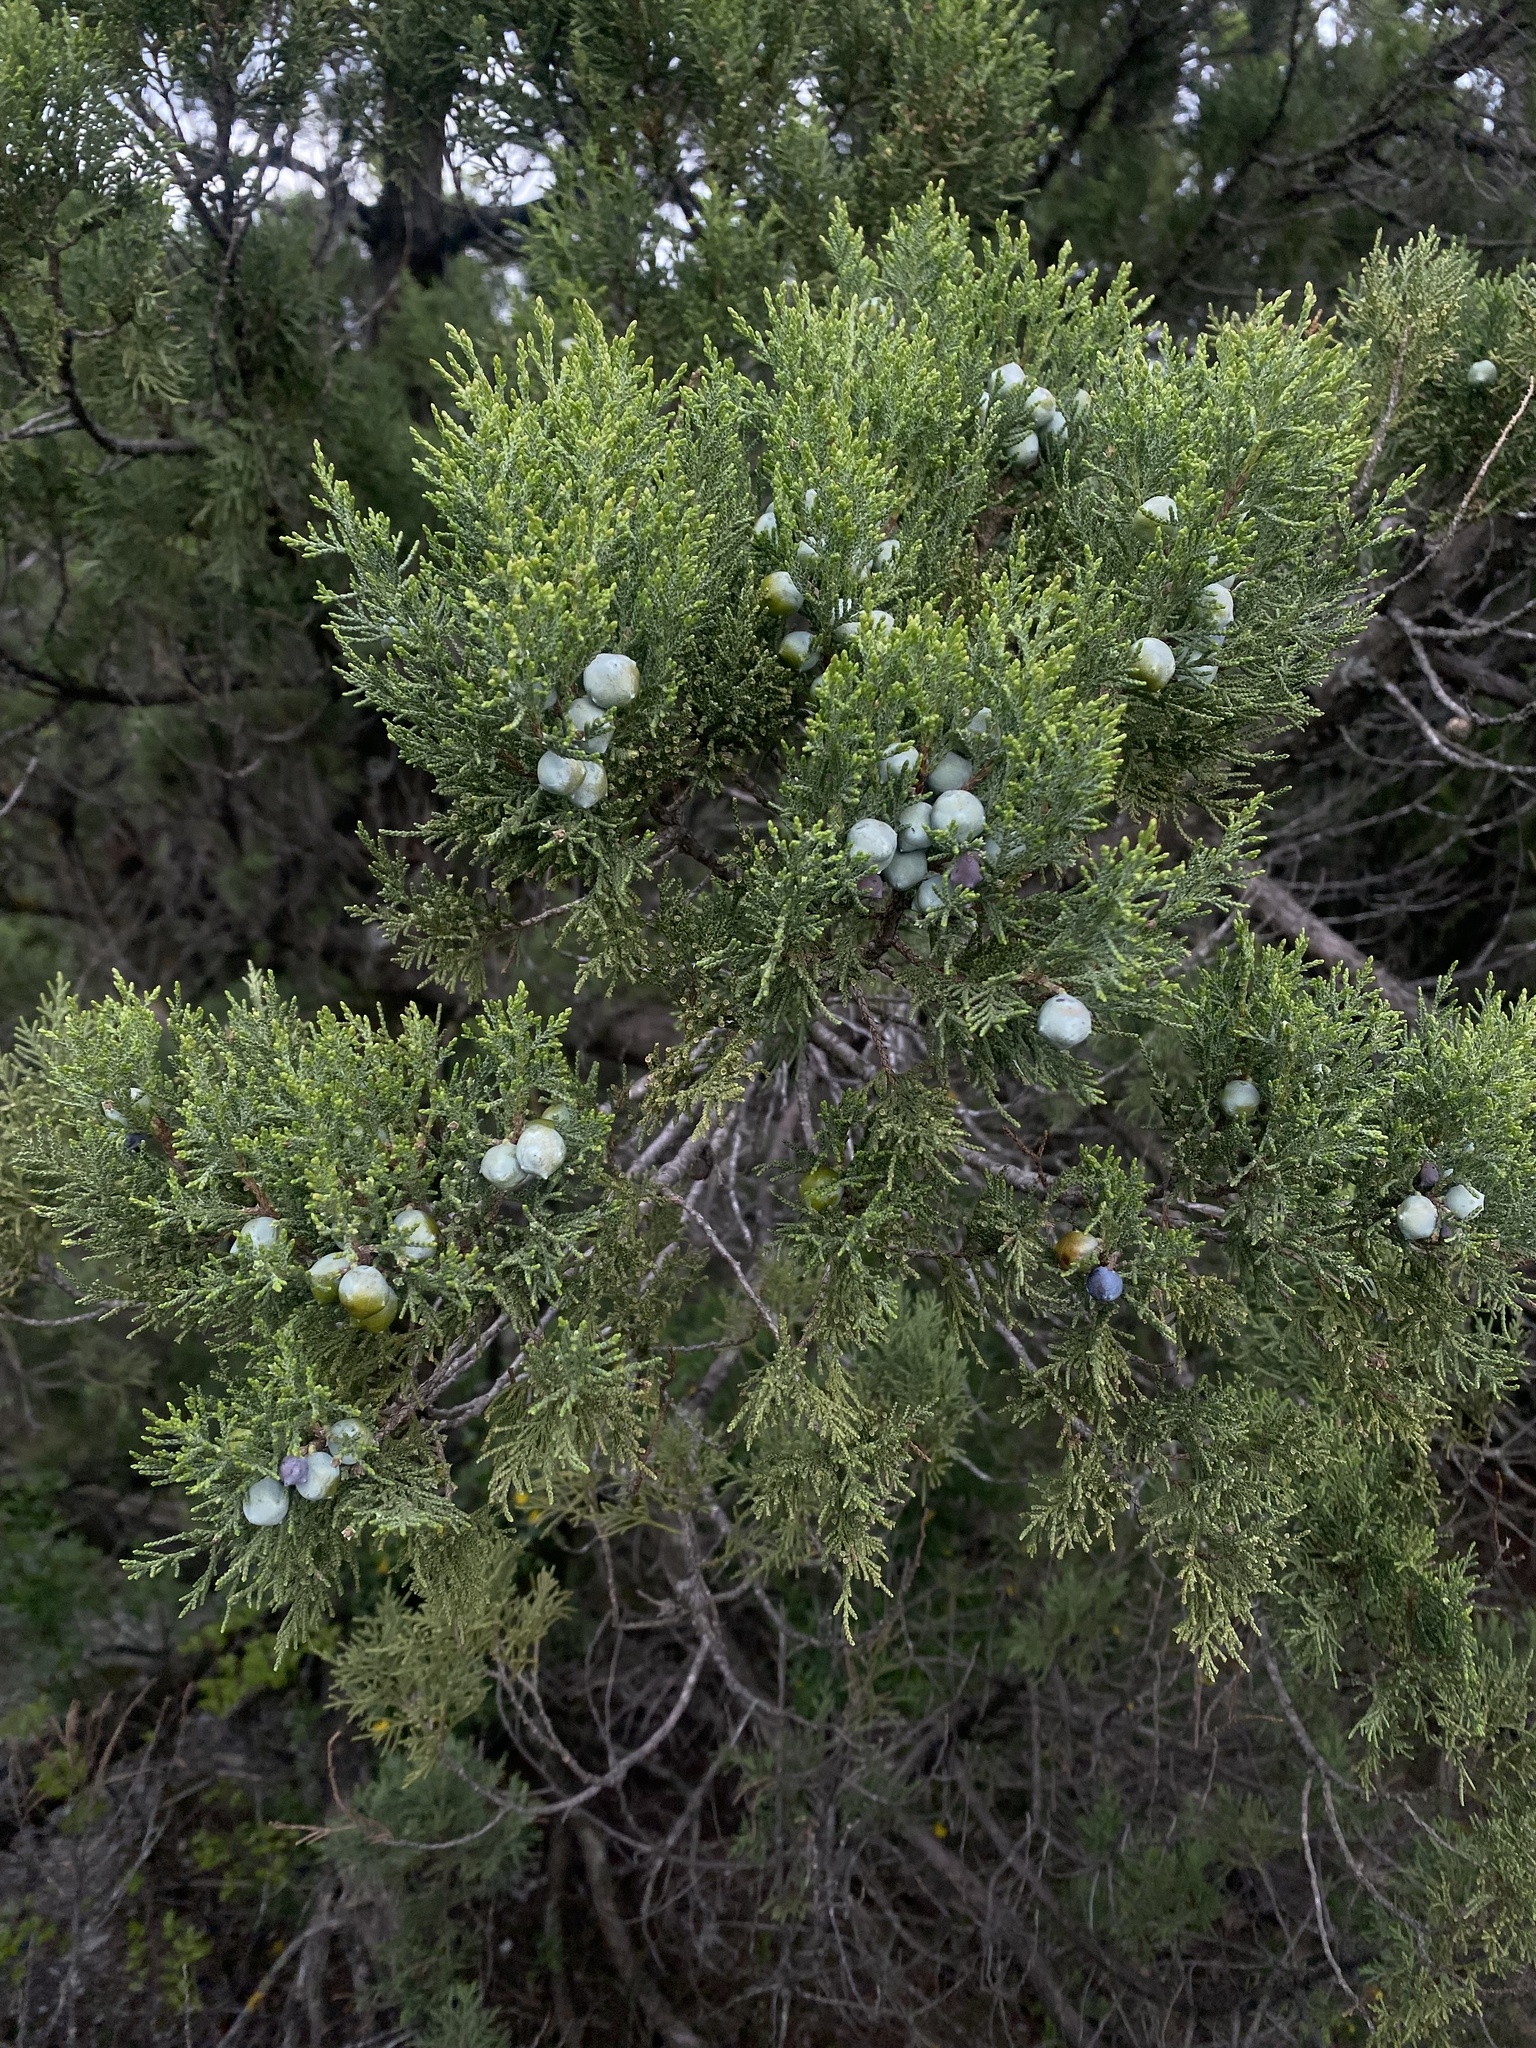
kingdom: Plantae
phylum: Tracheophyta
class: Pinopsida
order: Pinales
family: Cupressaceae
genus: Juniperus
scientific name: Juniperus excelsa
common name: Crimean juniper
